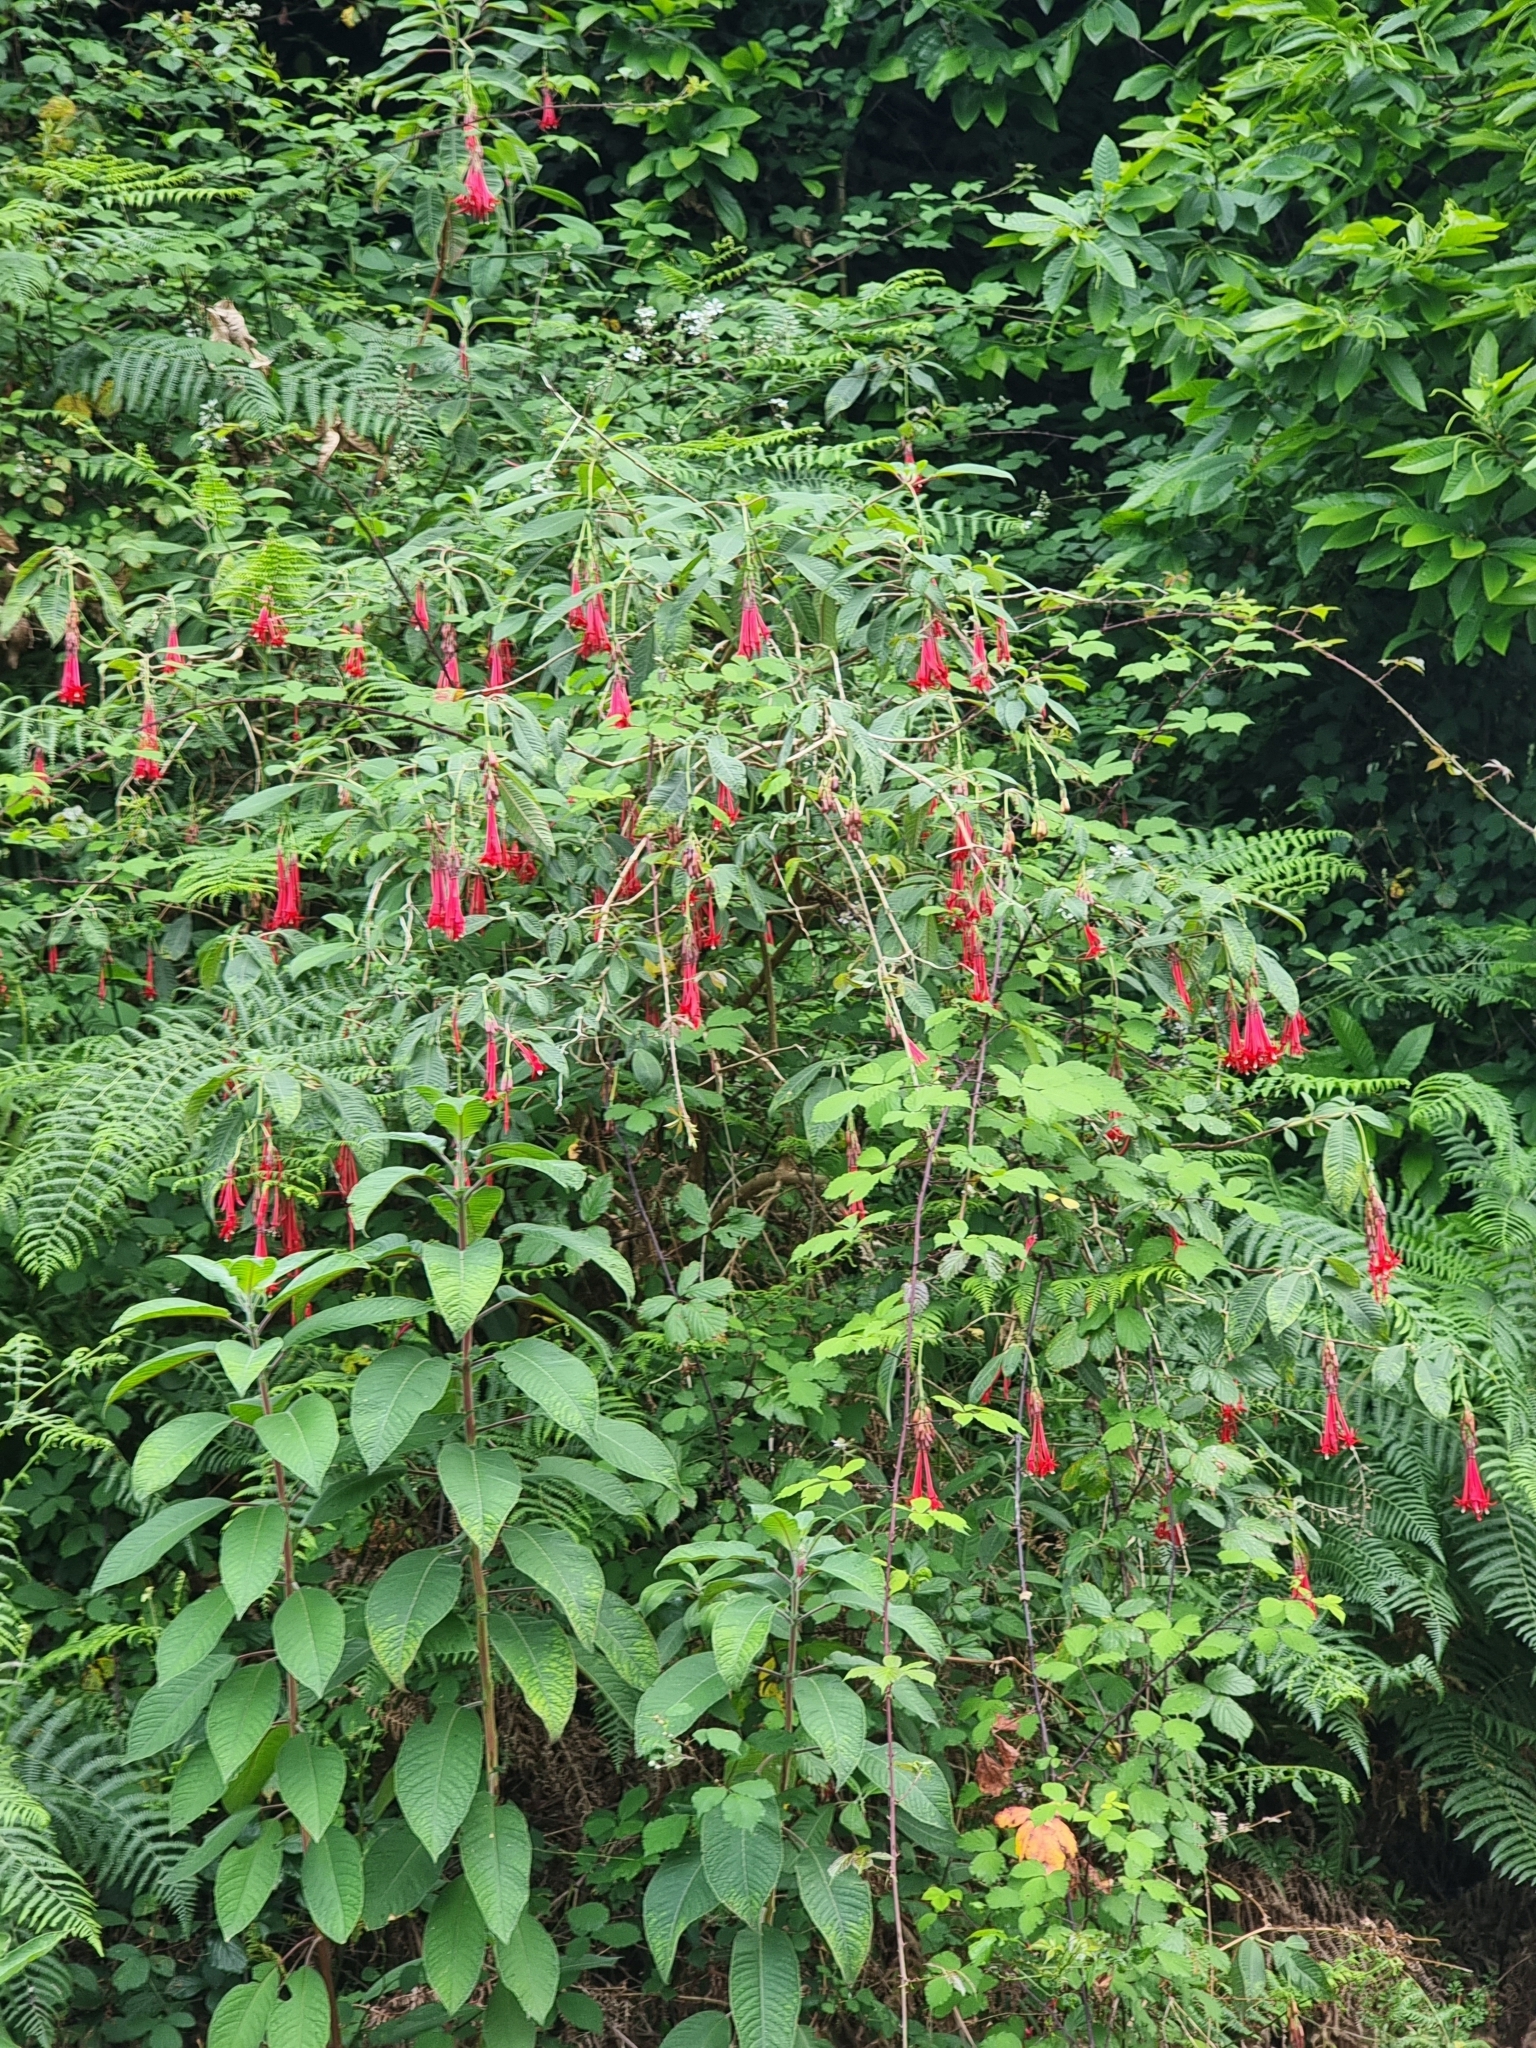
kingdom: Plantae
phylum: Tracheophyta
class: Magnoliopsida
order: Myrtales
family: Onagraceae
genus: Fuchsia
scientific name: Fuchsia boliviana
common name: Bolivian fuchsia
